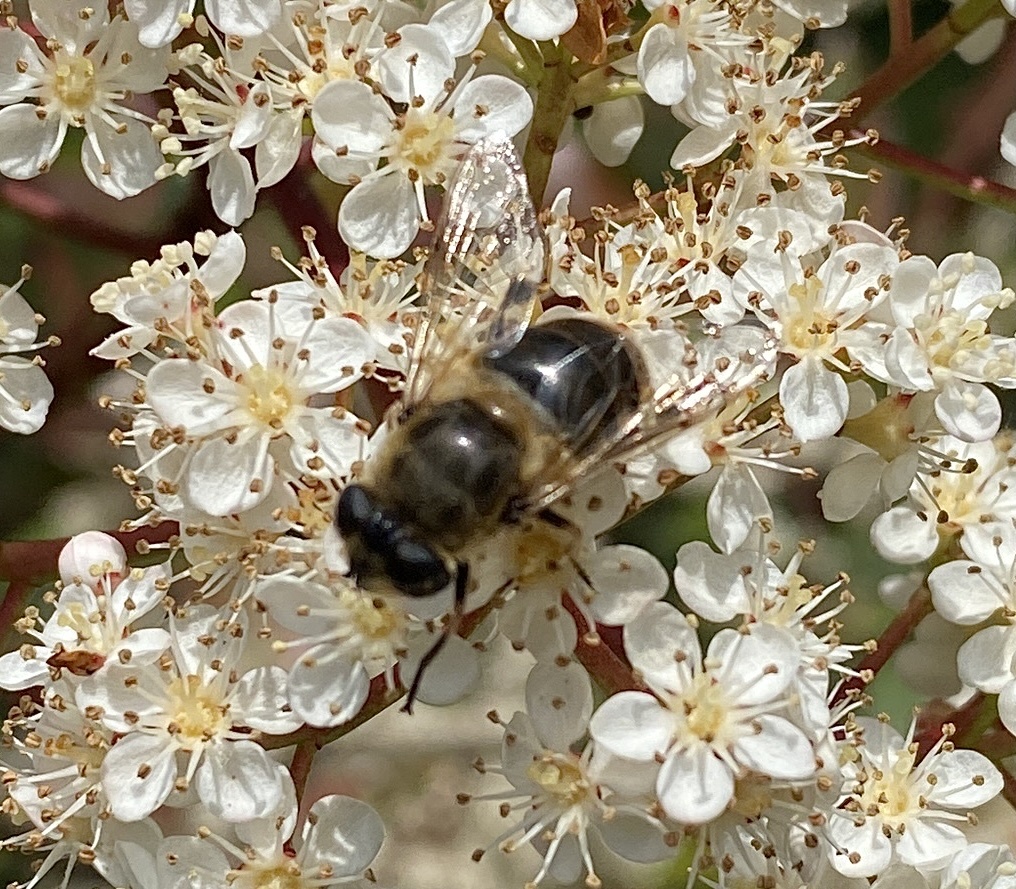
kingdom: Animalia
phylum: Arthropoda
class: Insecta
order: Diptera
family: Syrphidae
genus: Eristalis
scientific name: Eristalis tenax
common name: Drone fly
